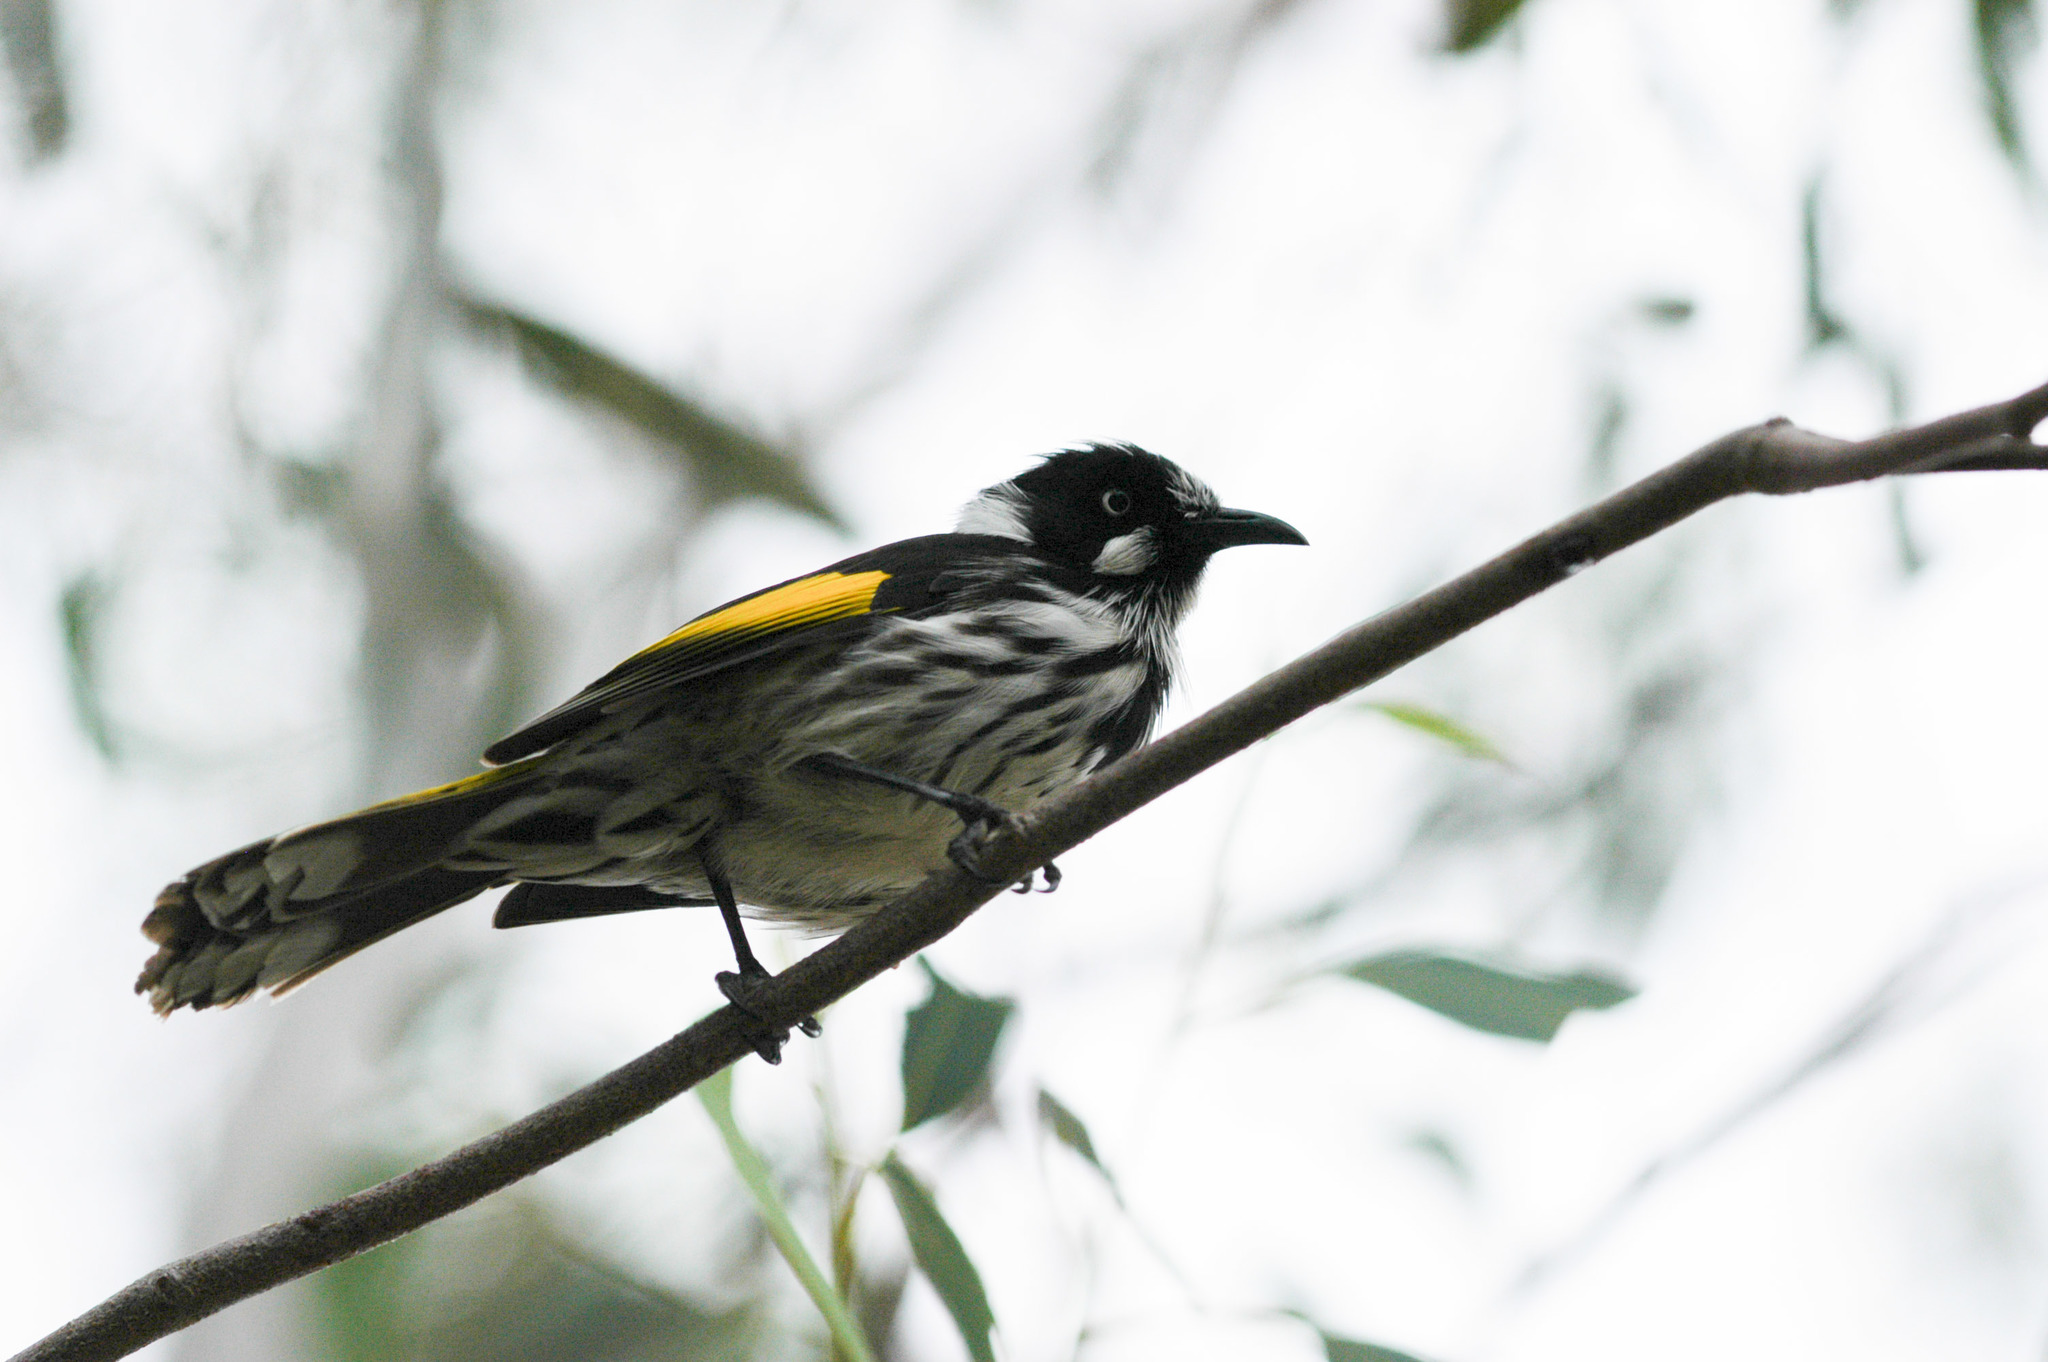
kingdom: Animalia
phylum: Chordata
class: Aves
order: Passeriformes
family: Meliphagidae
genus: Phylidonyris
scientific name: Phylidonyris novaehollandiae
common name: New holland honeyeater
